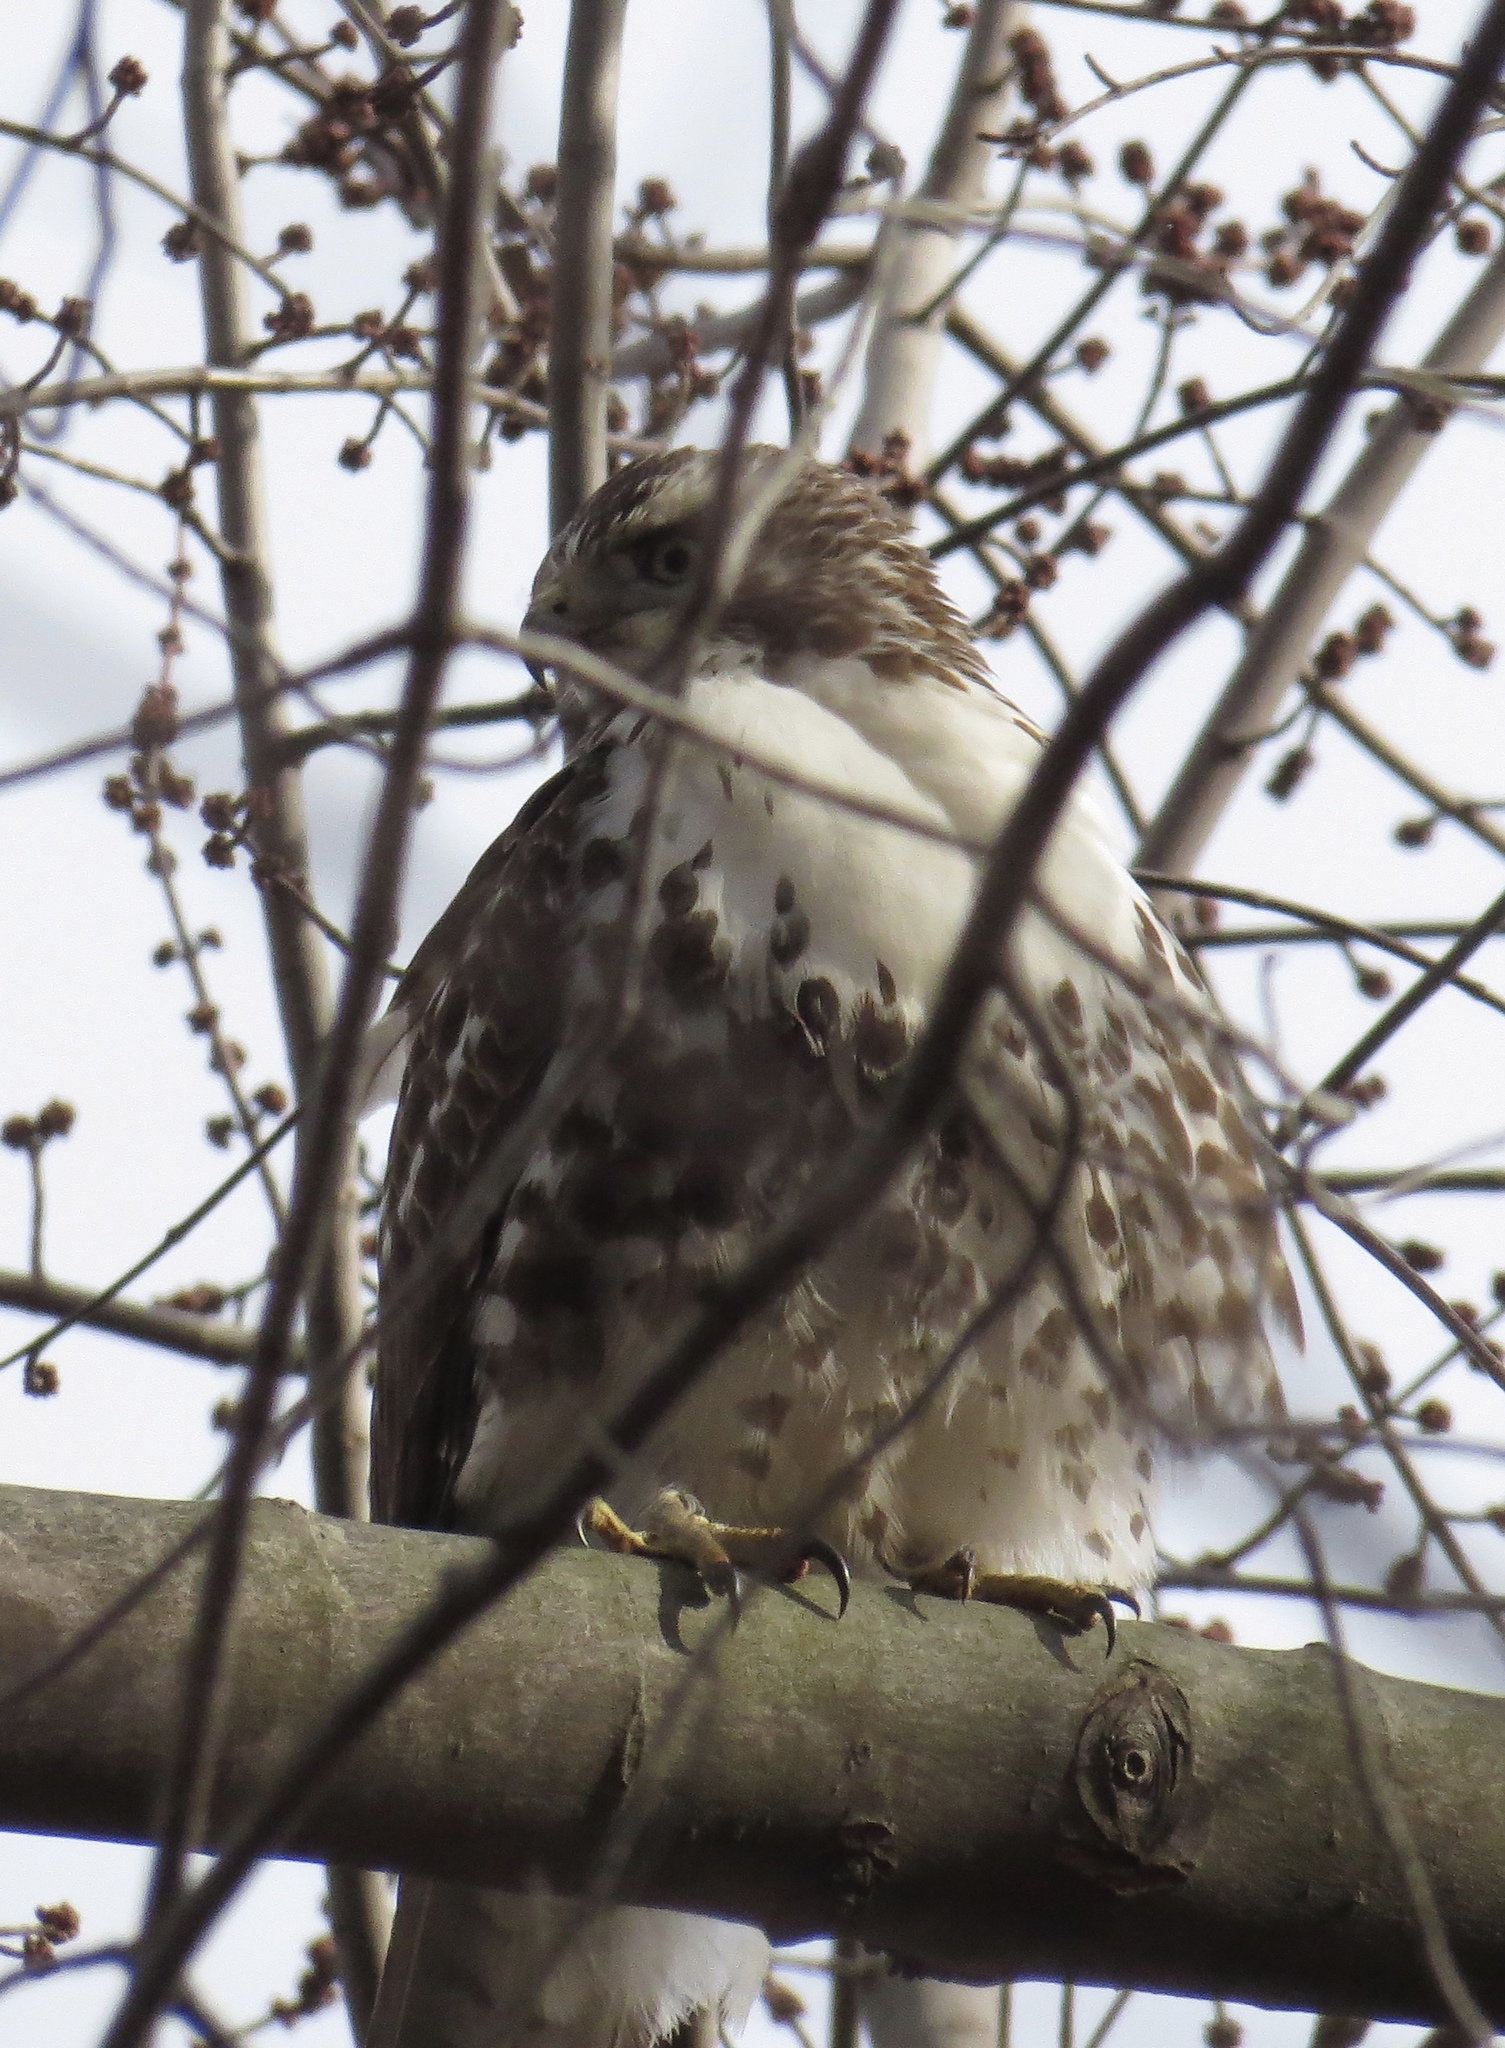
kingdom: Animalia
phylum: Chordata
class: Aves
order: Accipitriformes
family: Accipitridae
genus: Buteo
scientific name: Buteo jamaicensis
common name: Red-tailed hawk
